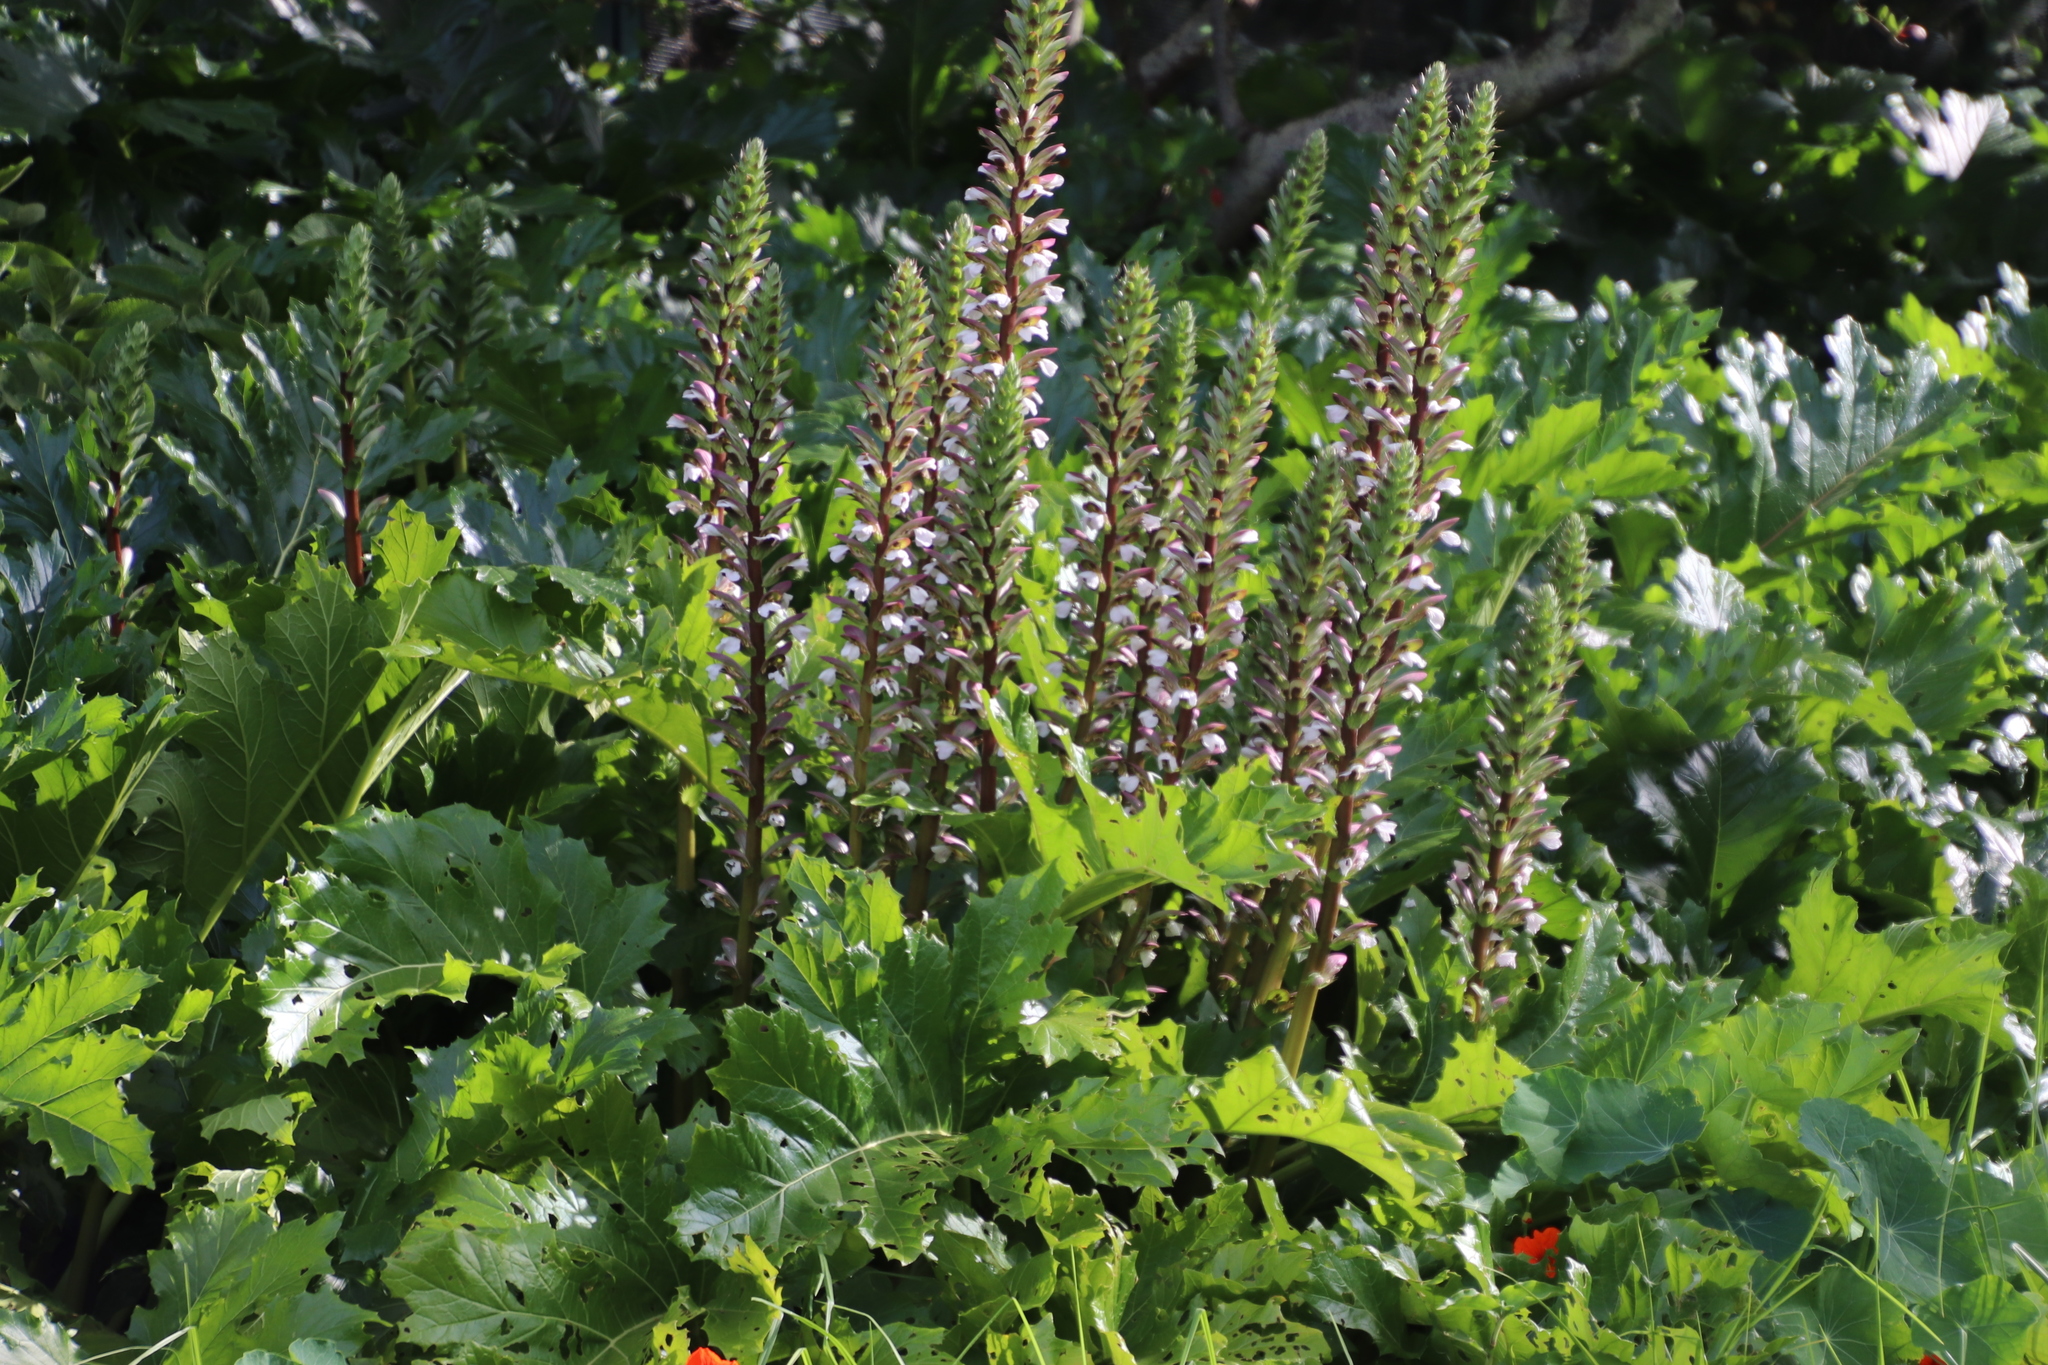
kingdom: Plantae
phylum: Tracheophyta
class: Magnoliopsida
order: Lamiales
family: Acanthaceae
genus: Acanthus
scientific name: Acanthus mollis
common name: Bear's-breech
